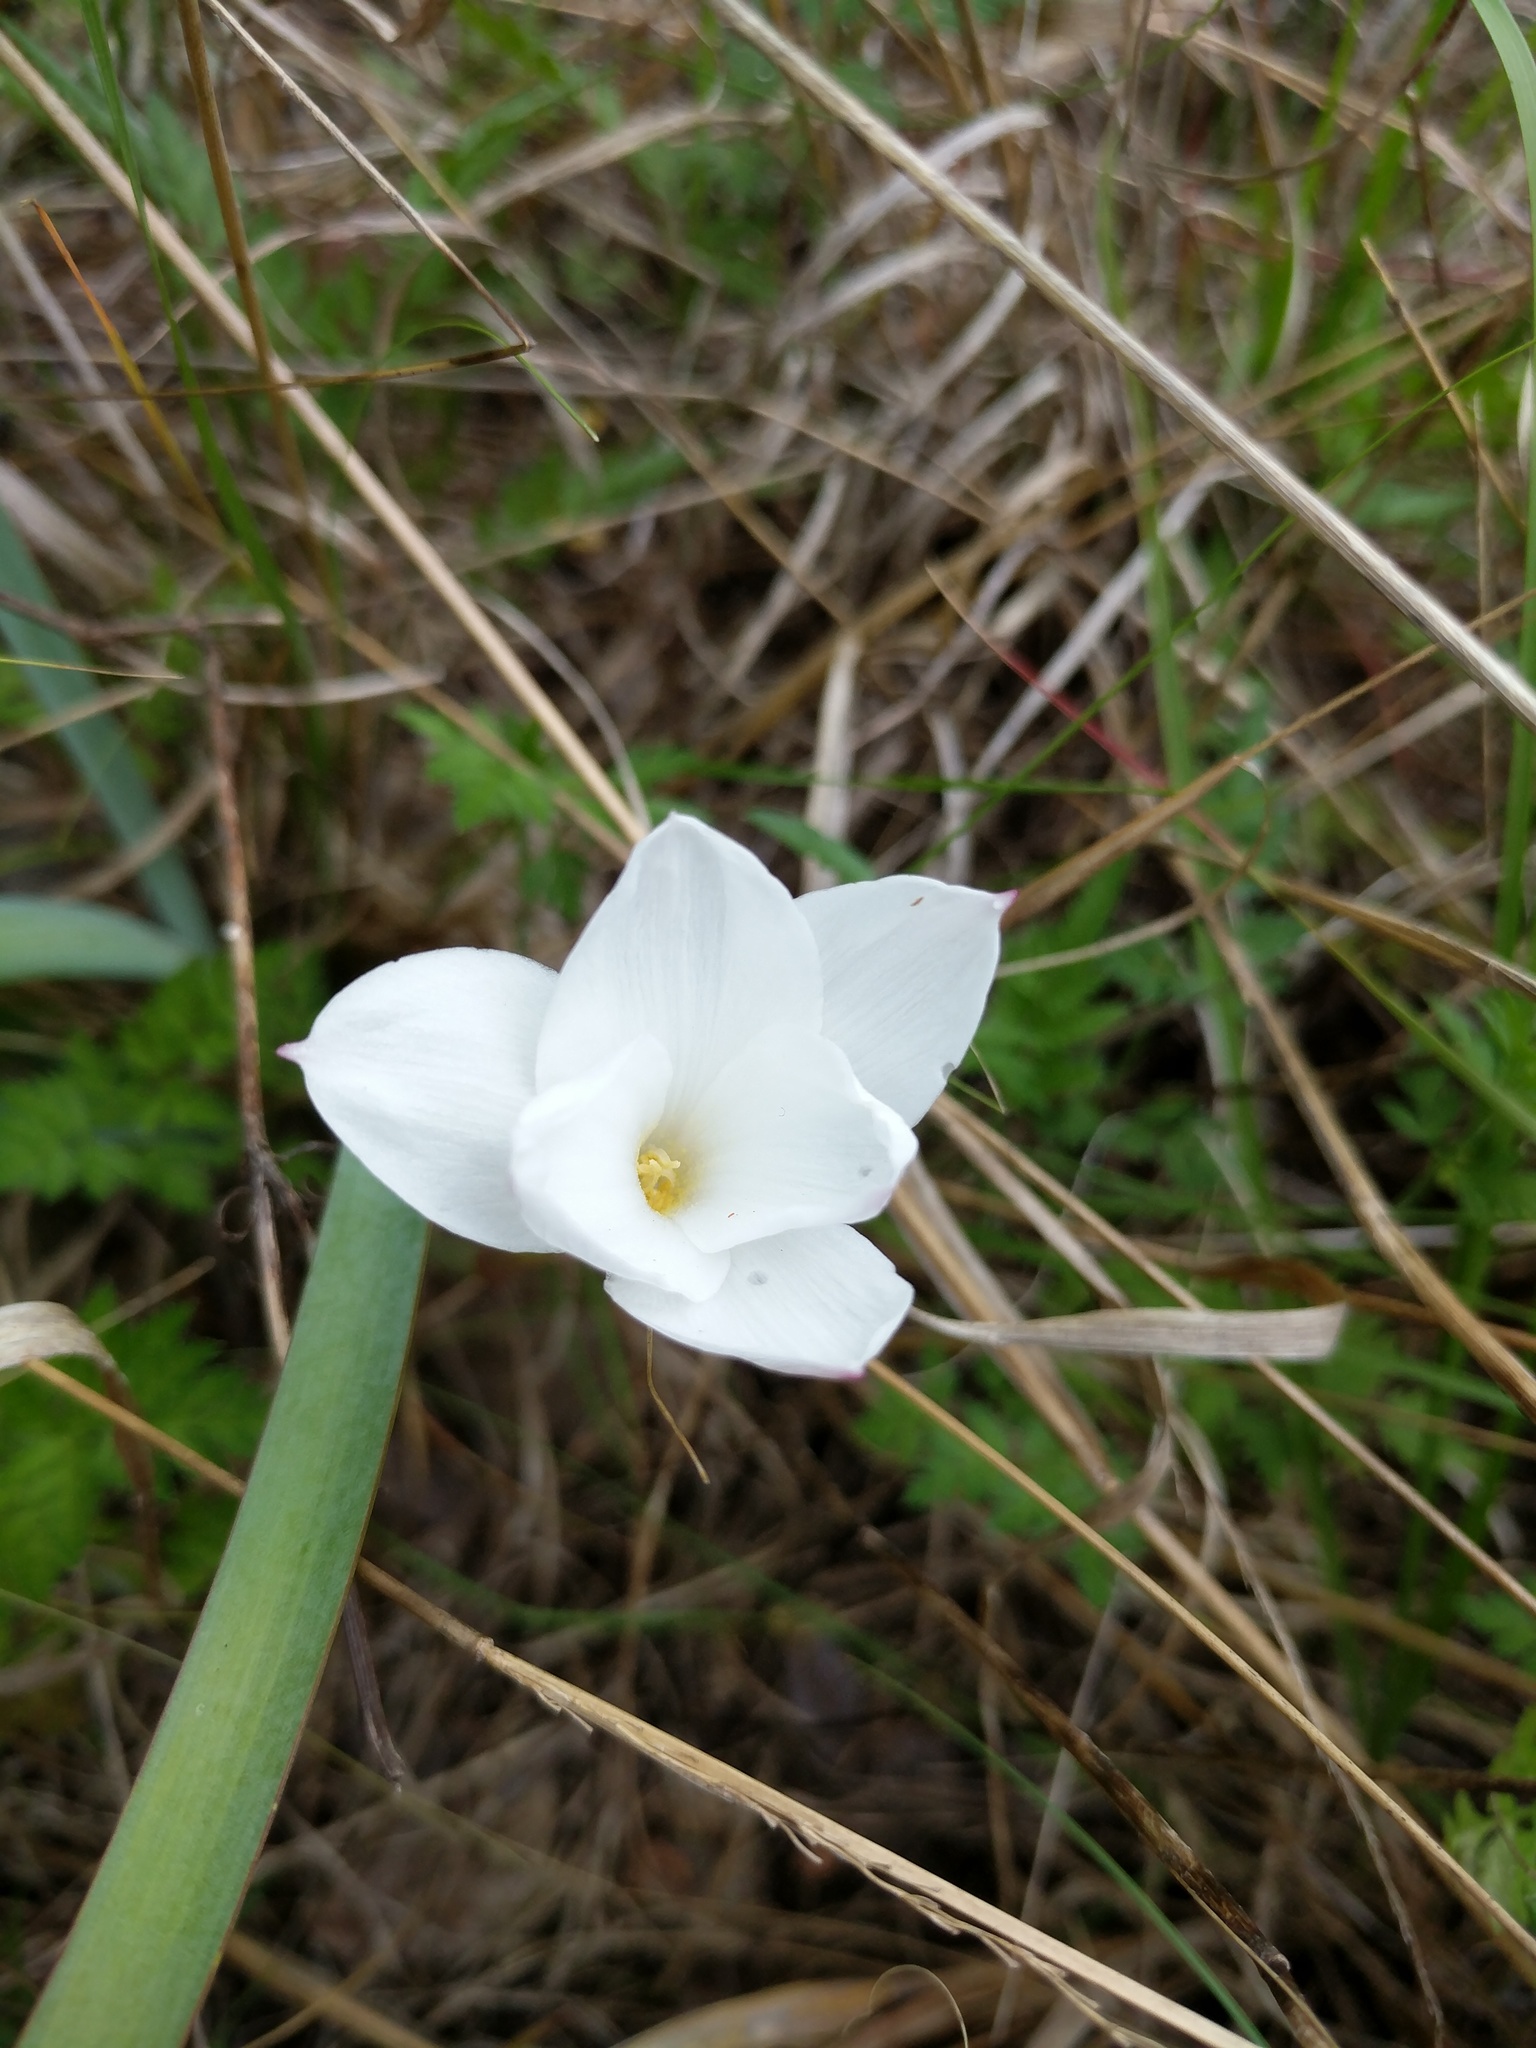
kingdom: Plantae
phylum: Tracheophyta
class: Liliopsida
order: Asparagales
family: Amaryllidaceae
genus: Zephyranthes
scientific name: Zephyranthes drummondii
